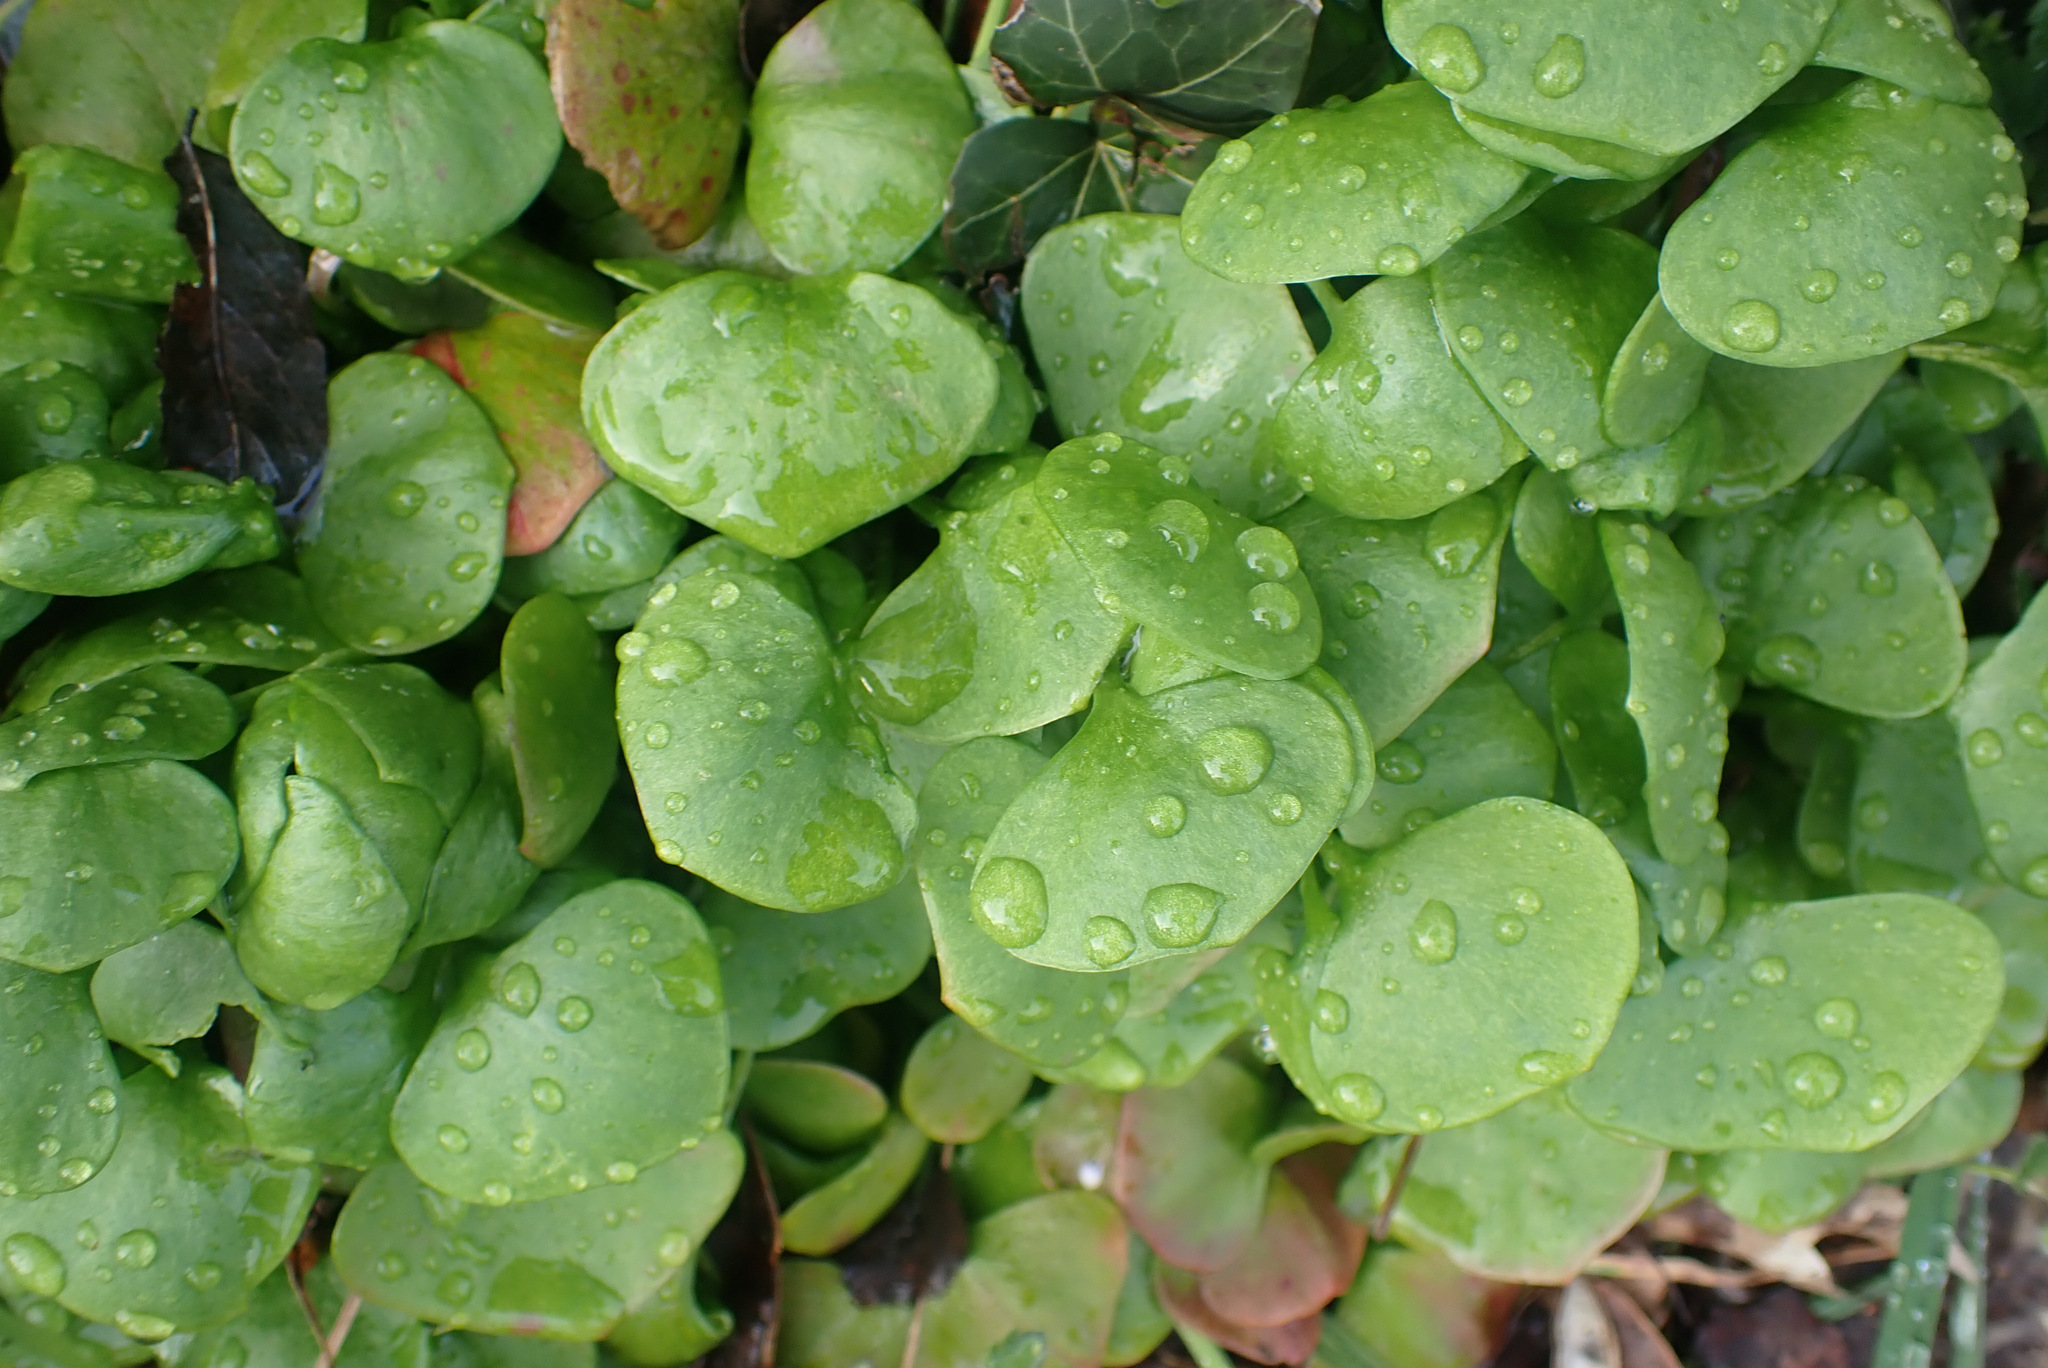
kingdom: Plantae
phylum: Tracheophyta
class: Magnoliopsida
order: Caryophyllales
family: Montiaceae
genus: Claytonia
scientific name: Claytonia perfoliata
